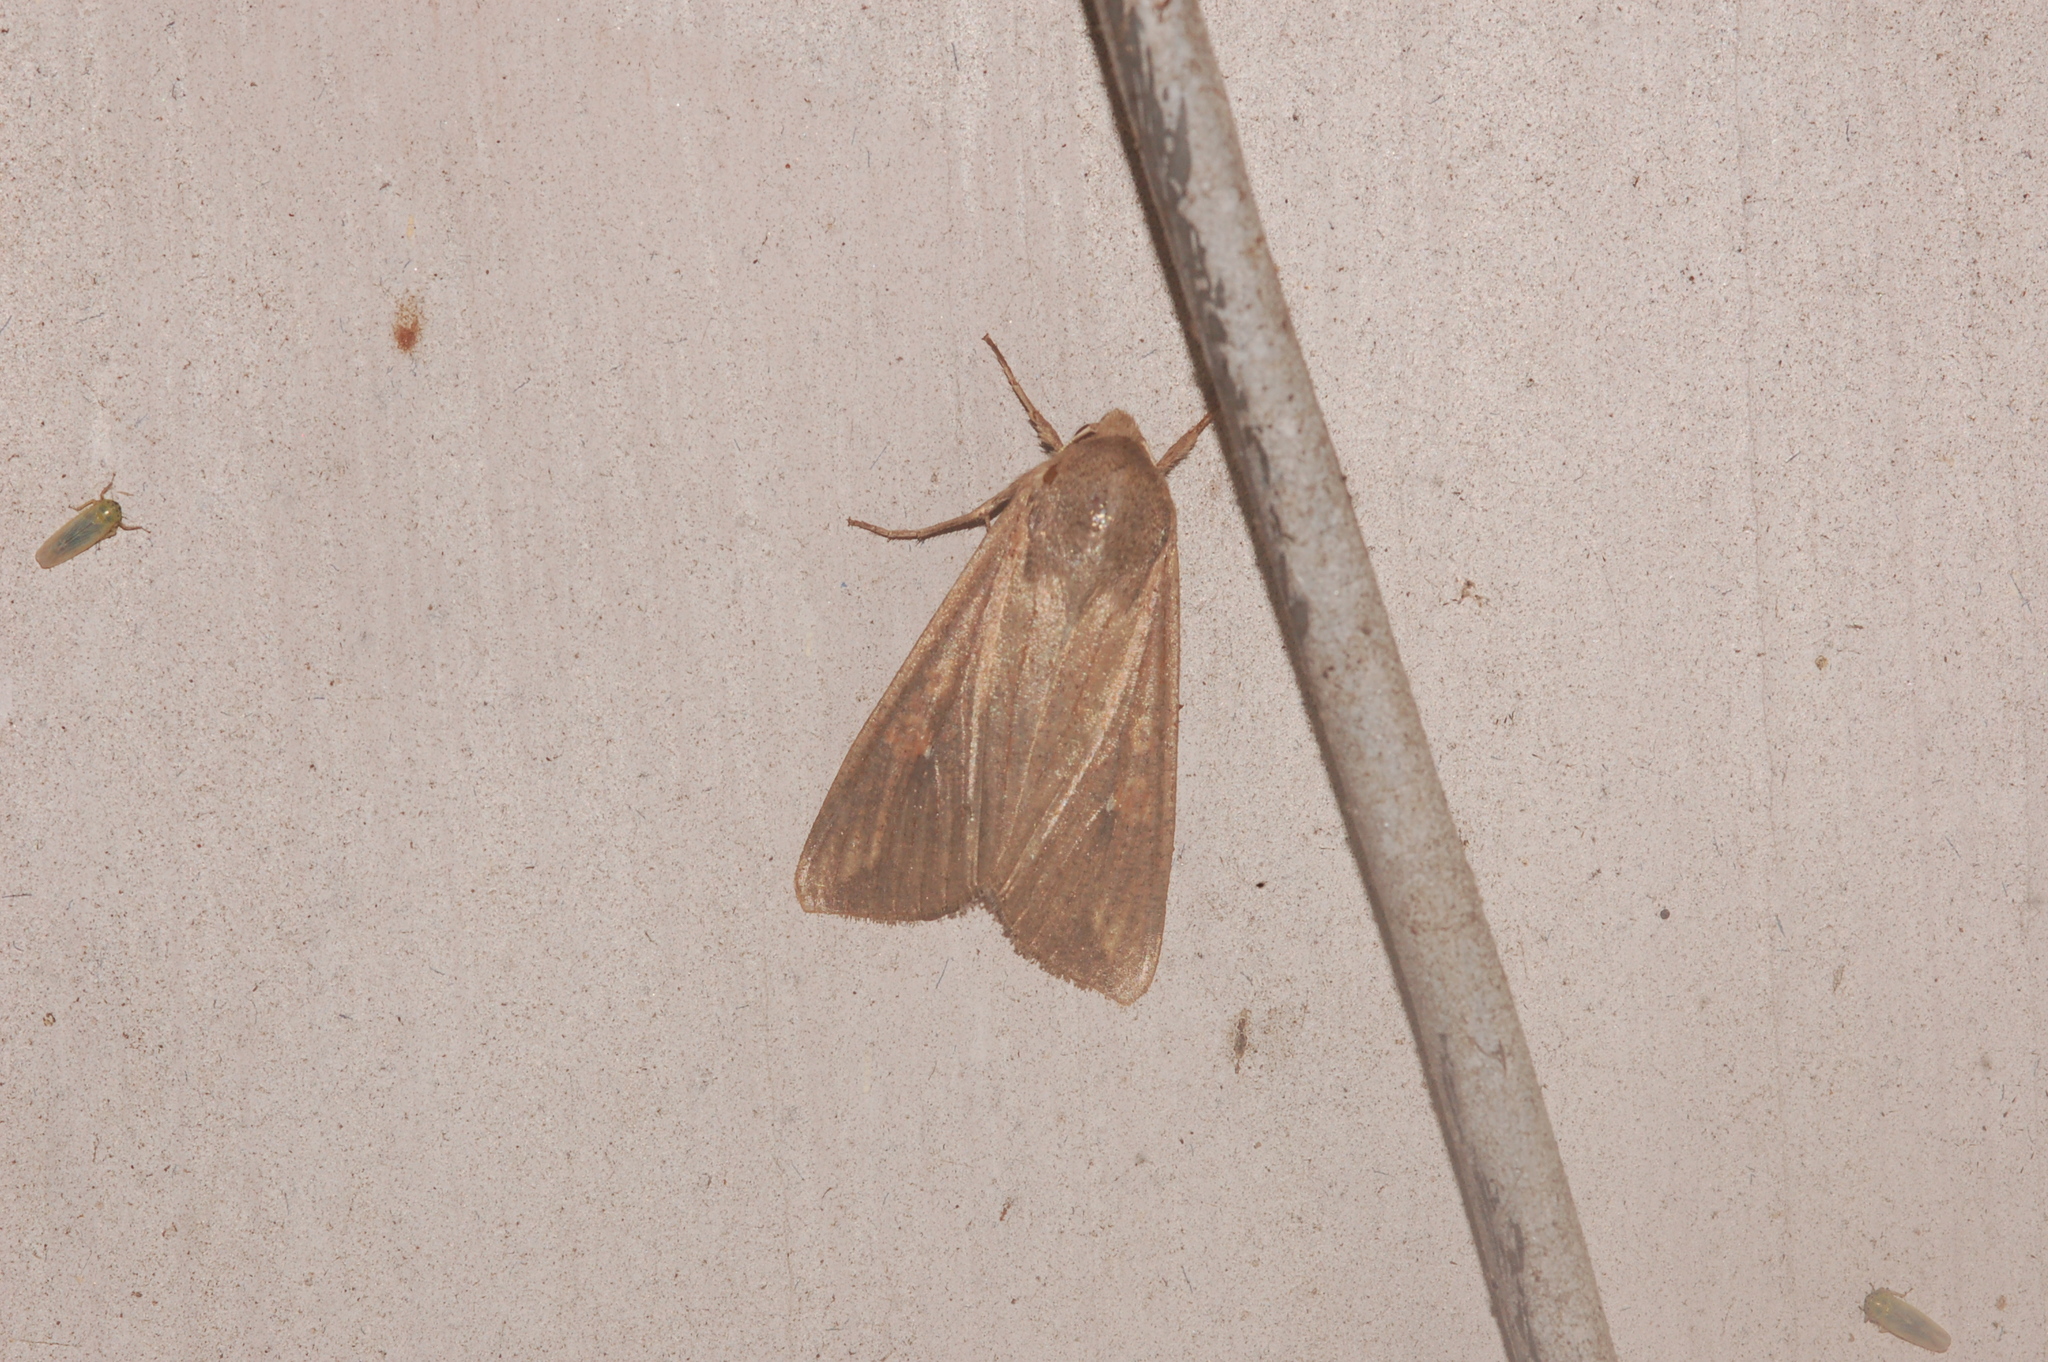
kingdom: Animalia
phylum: Arthropoda
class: Insecta
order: Lepidoptera
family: Noctuidae
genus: Mythimna
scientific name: Mythimna unipuncta
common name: White-speck
